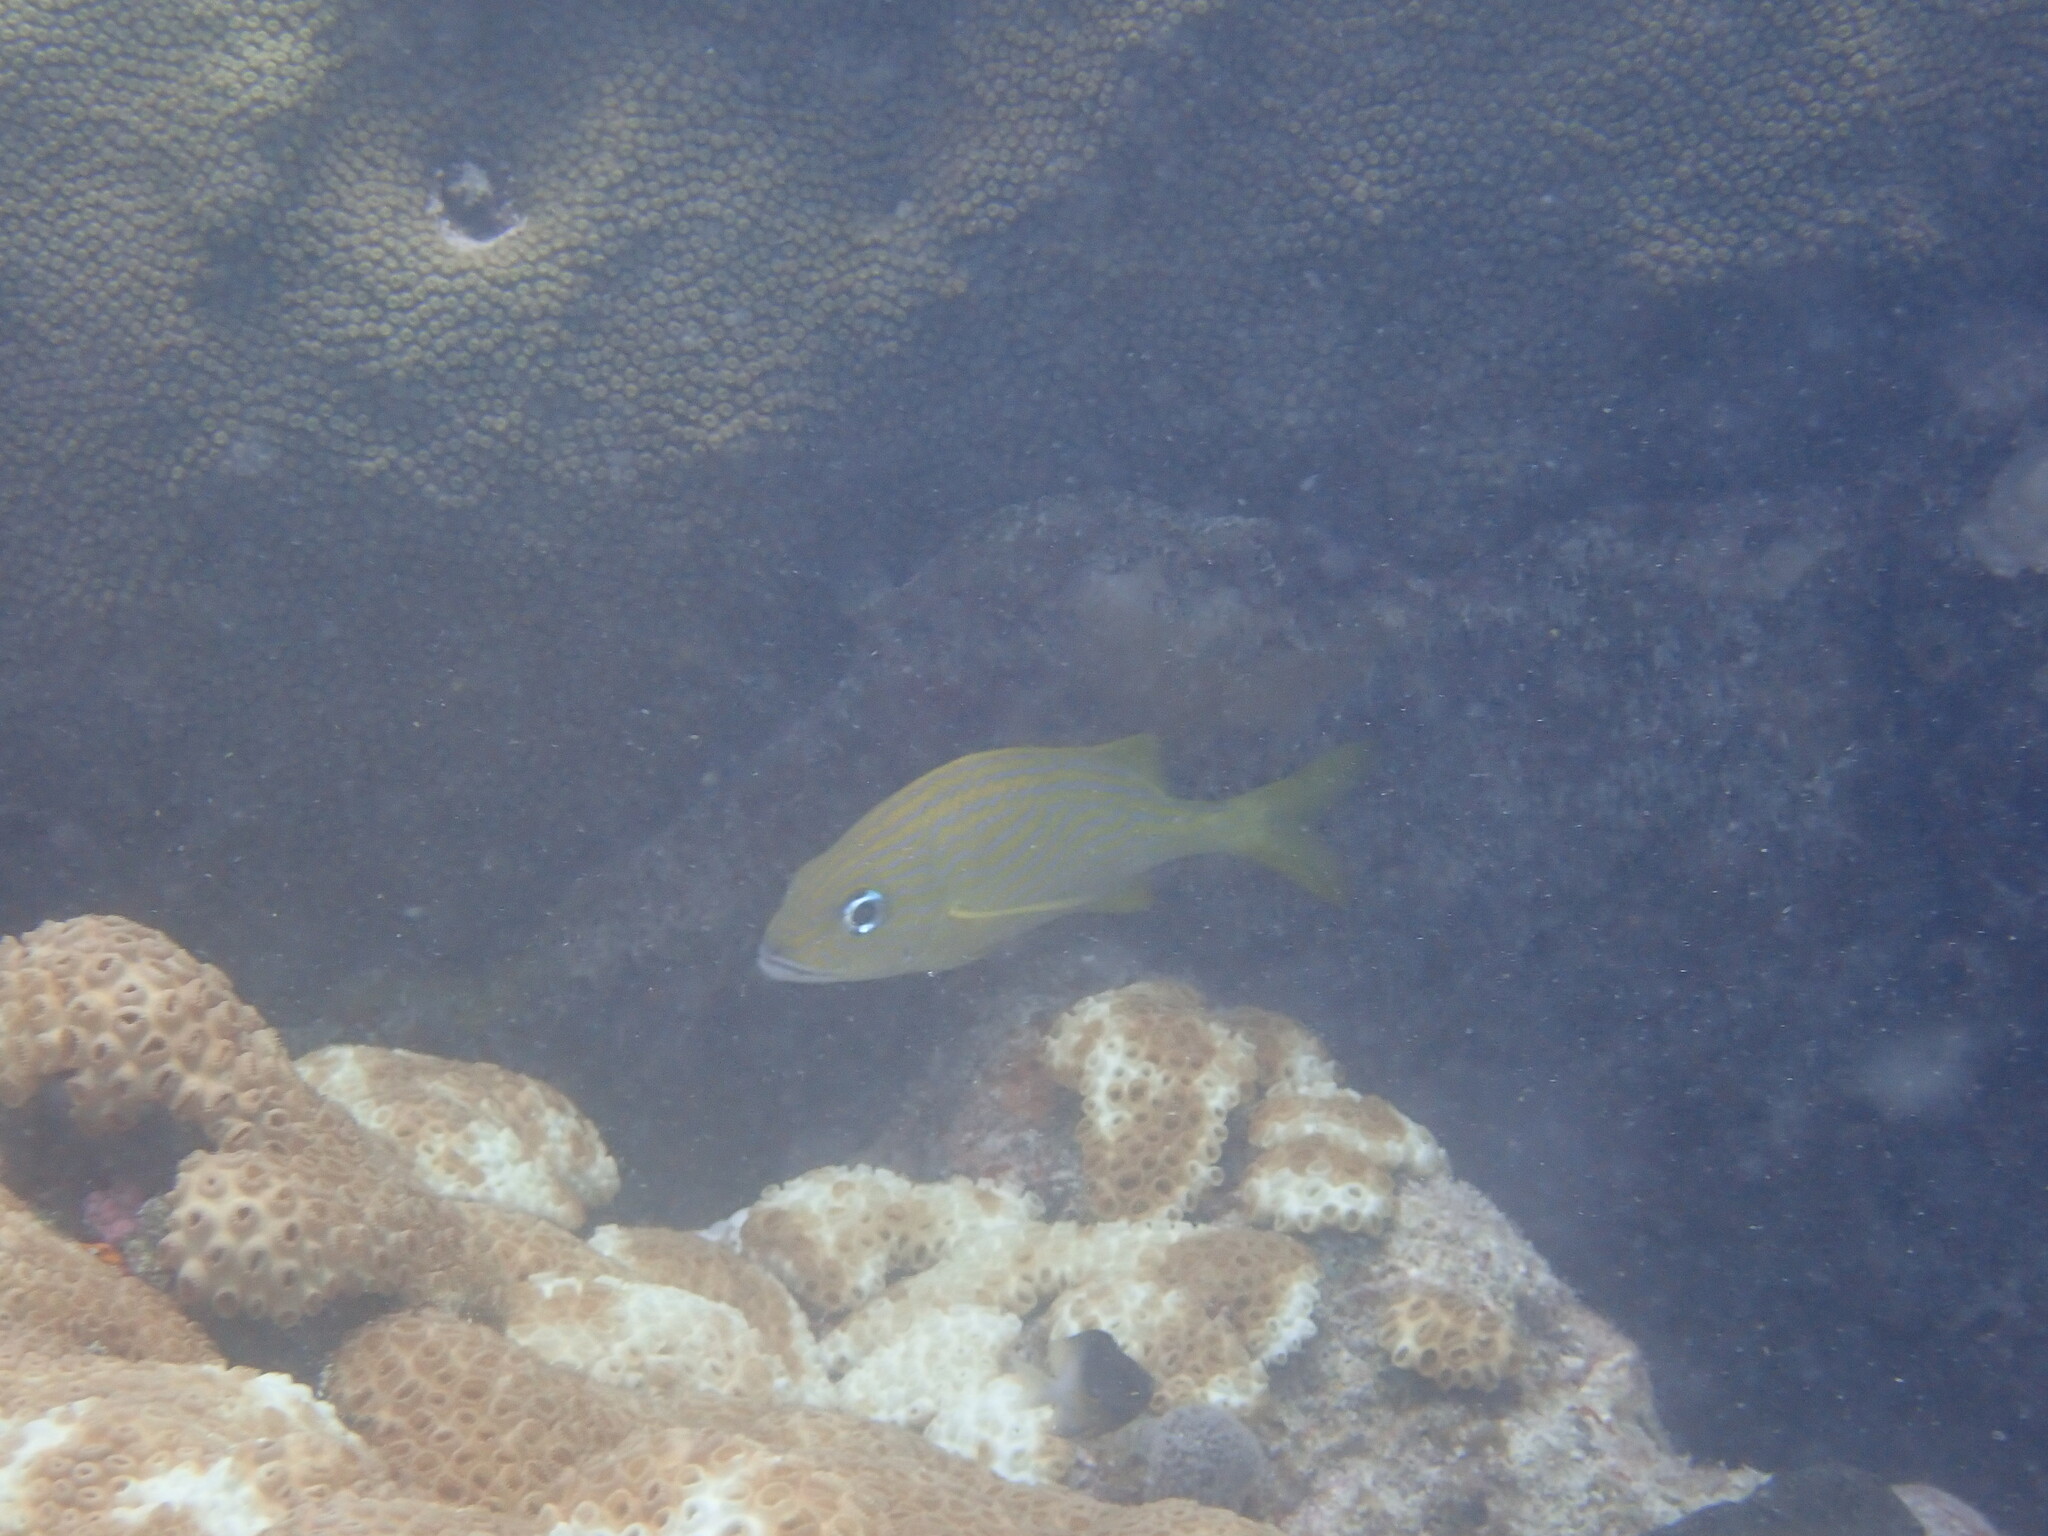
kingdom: Animalia
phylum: Chordata
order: Perciformes
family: Haemulidae
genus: Haemulon
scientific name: Haemulon flavolineatum
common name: French grunt
